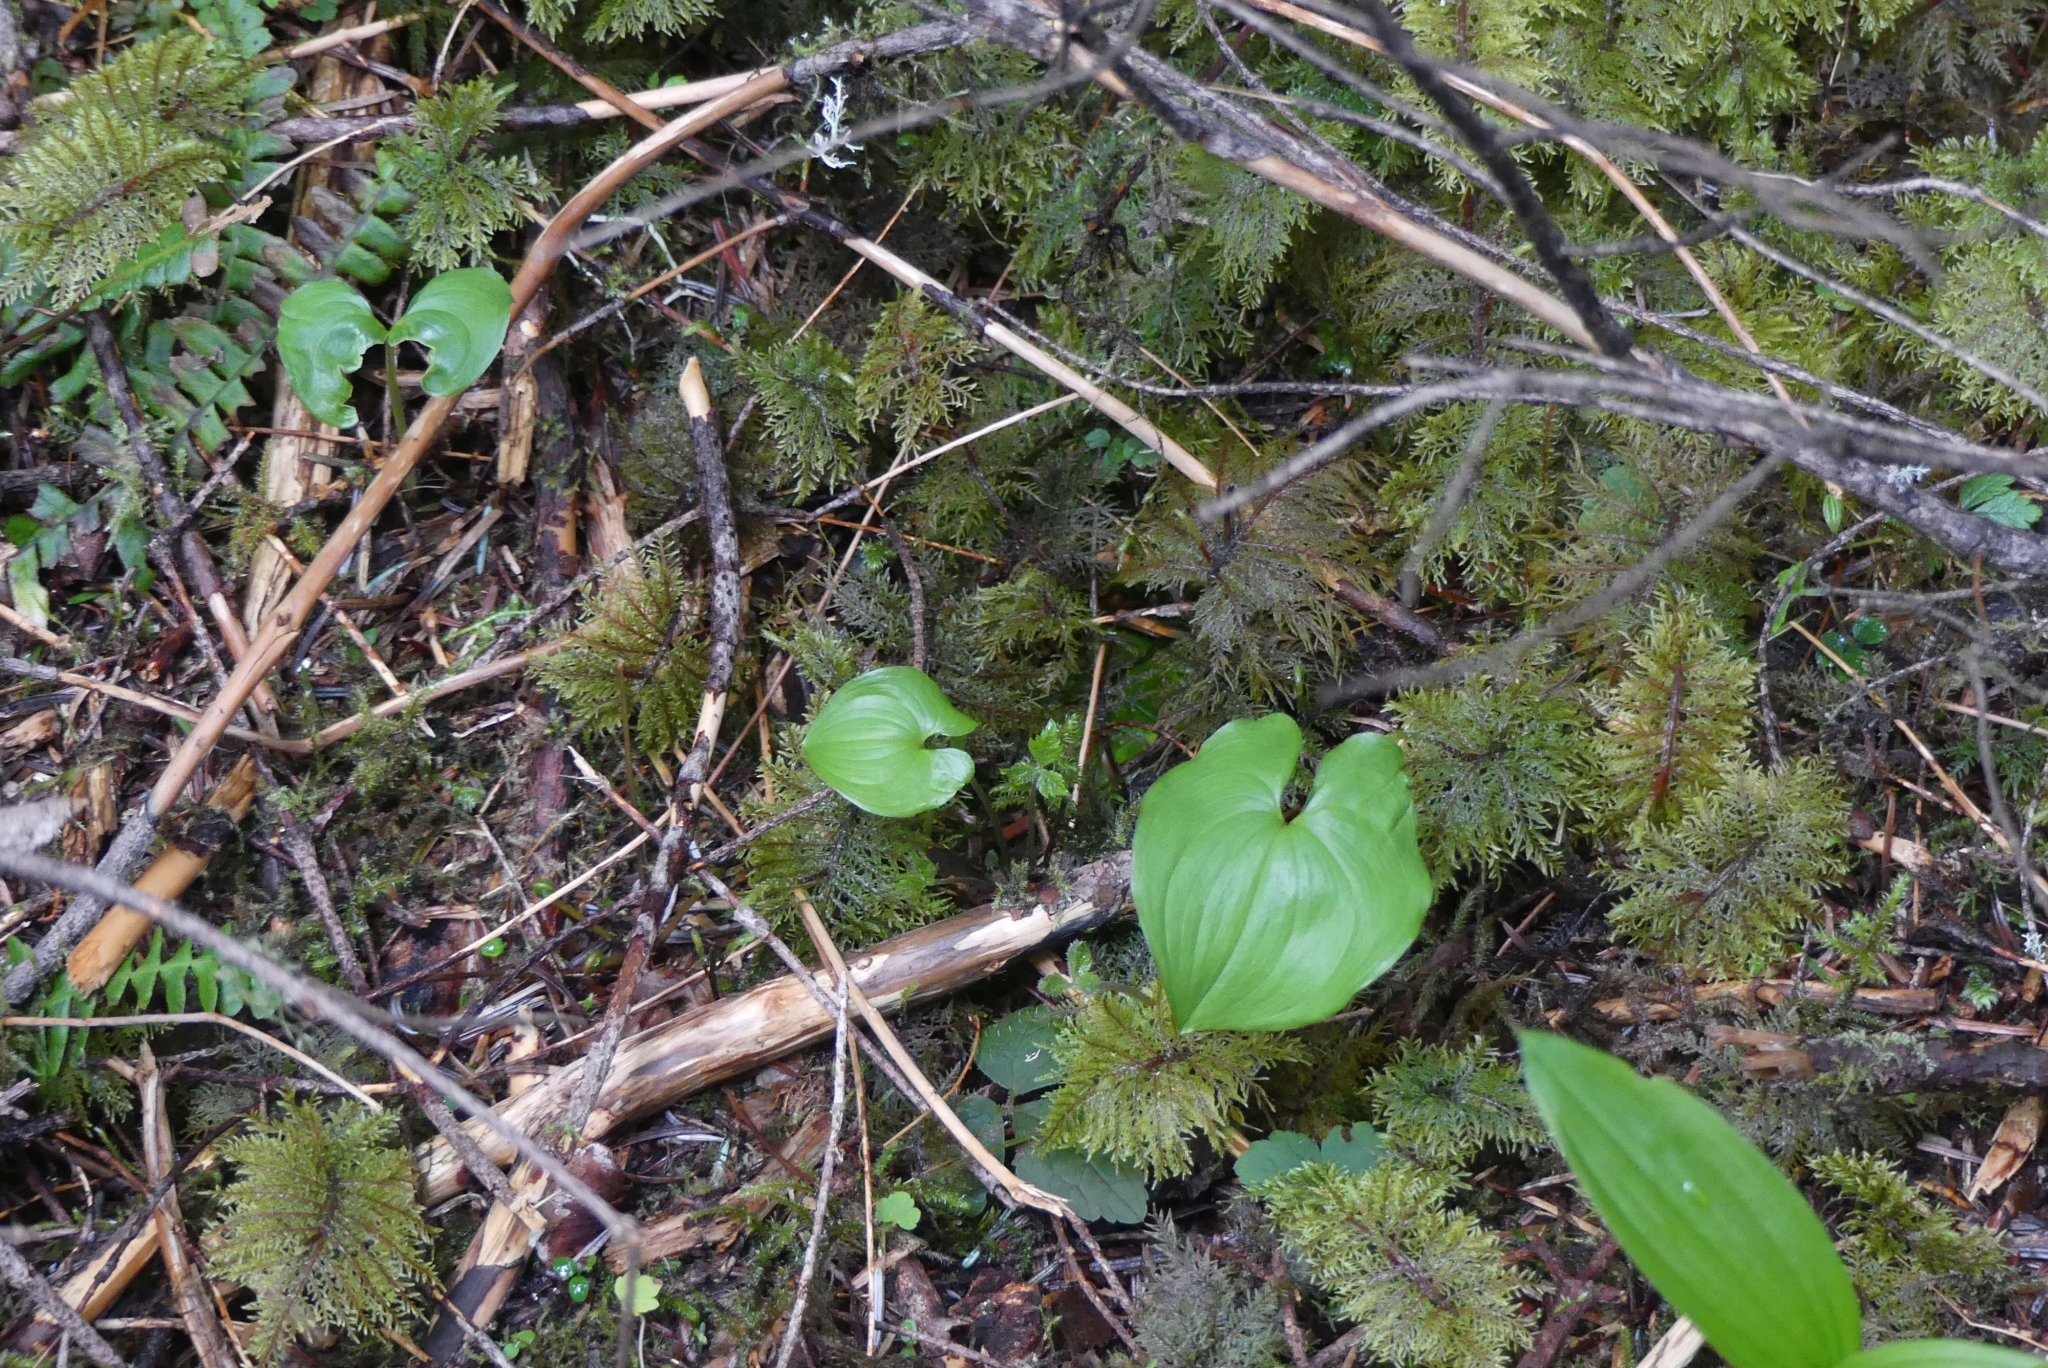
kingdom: Plantae
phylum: Tracheophyta
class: Liliopsida
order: Asparagales
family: Asparagaceae
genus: Maianthemum
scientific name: Maianthemum dilatatum
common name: False lily-of-the-valley
